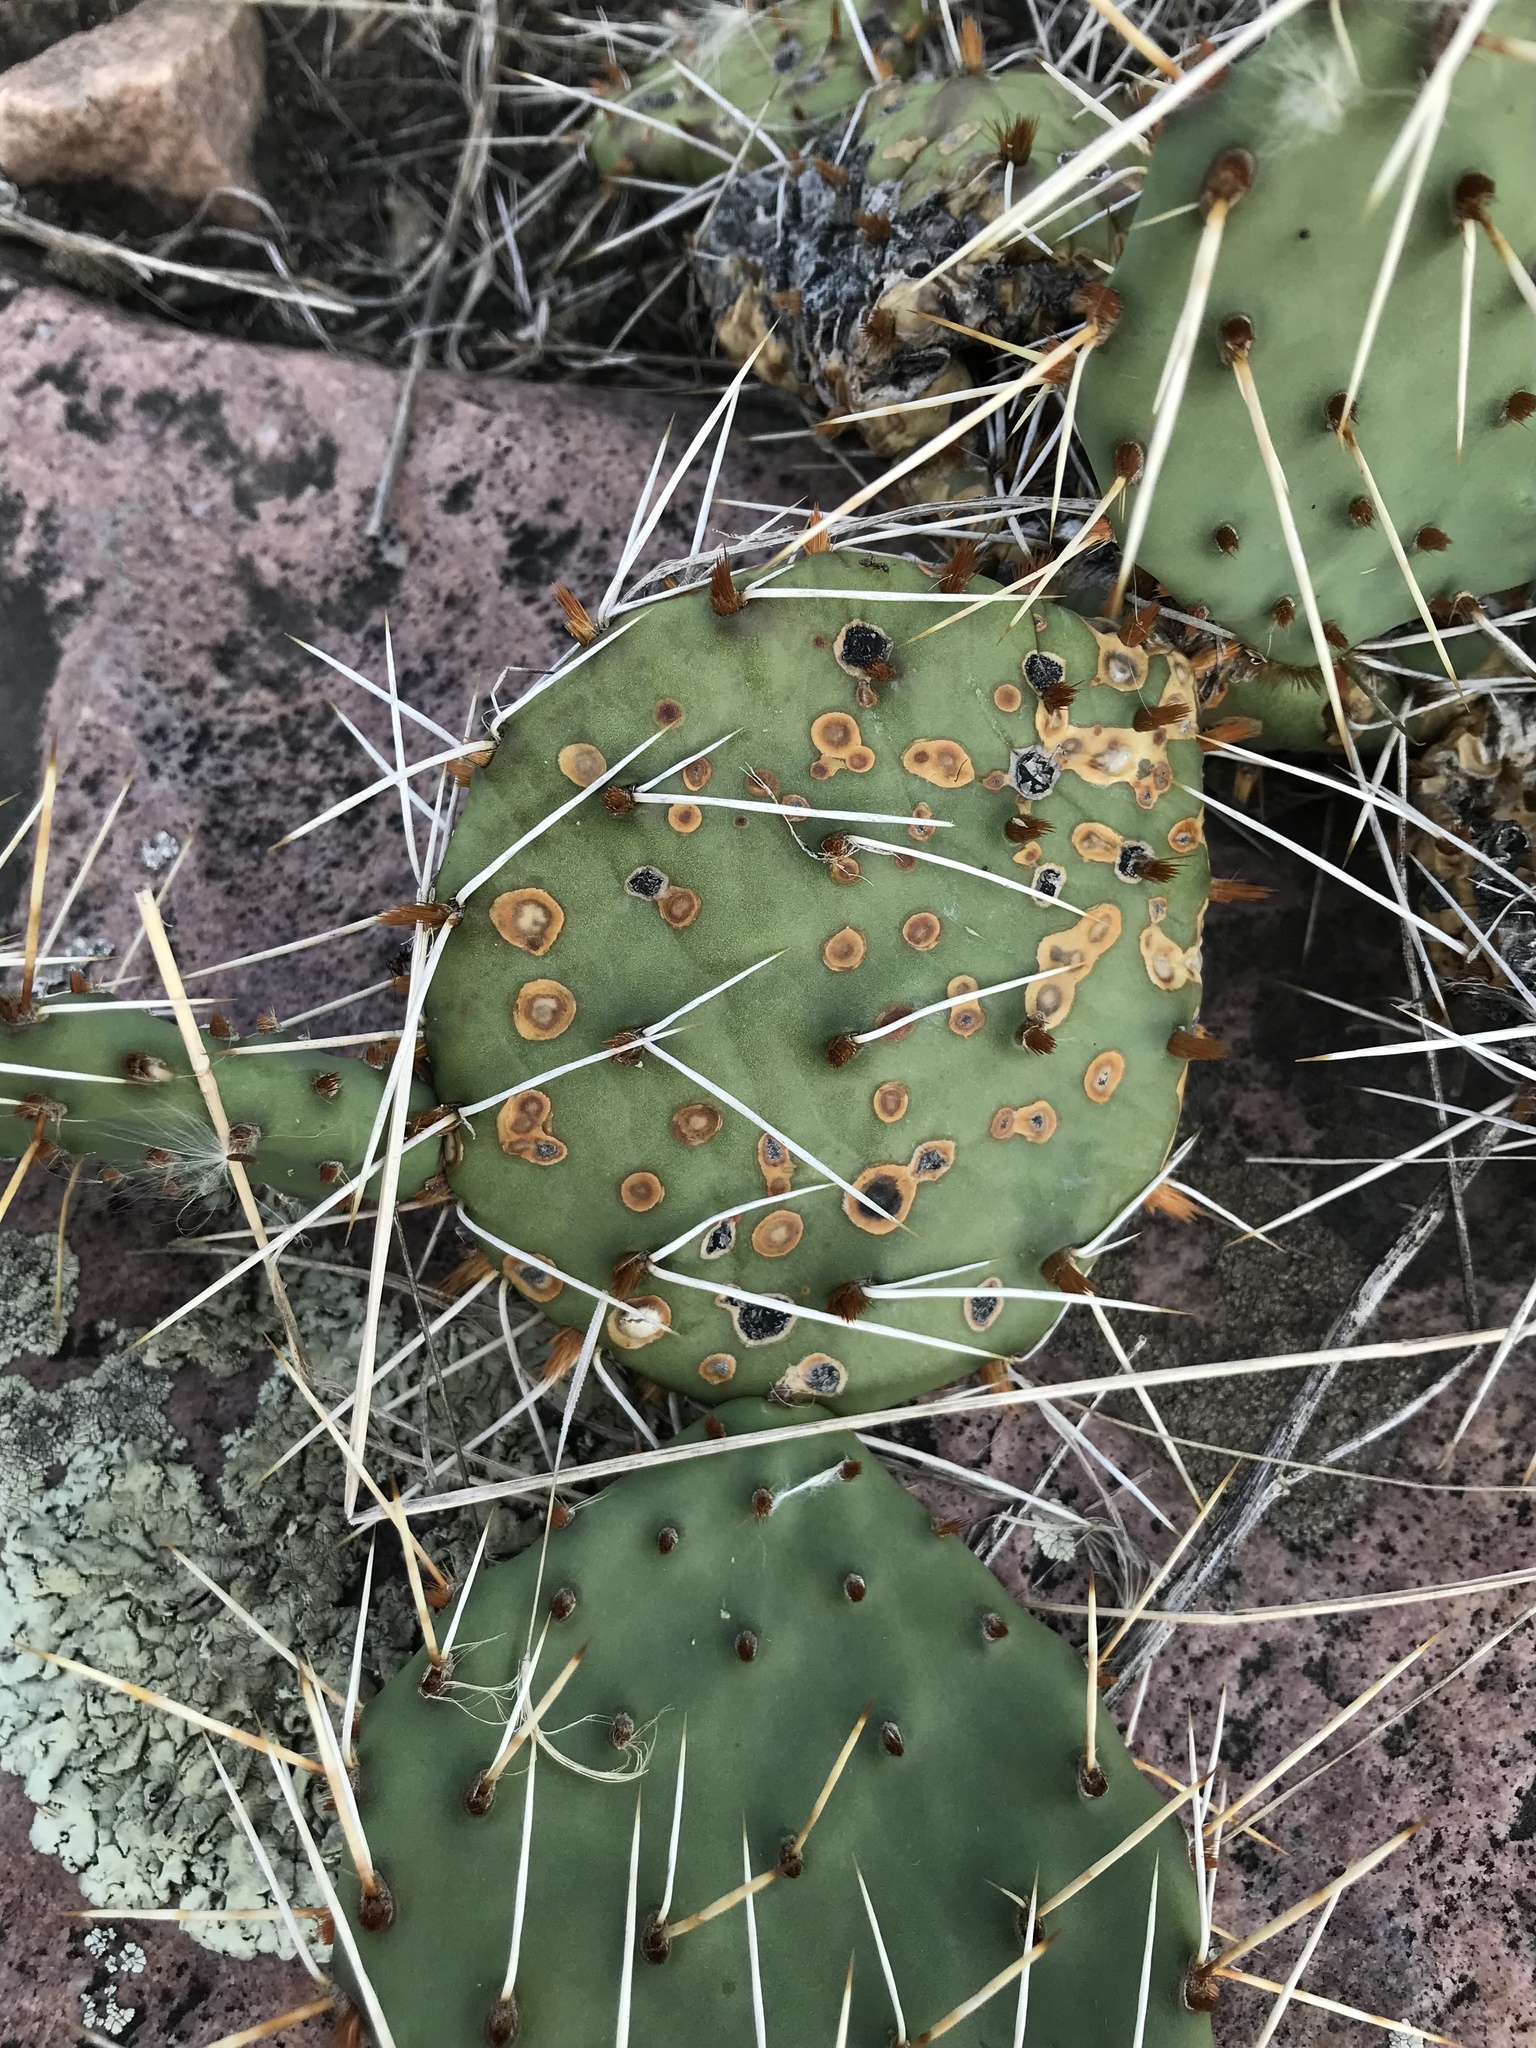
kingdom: Plantae
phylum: Tracheophyta
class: Magnoliopsida
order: Caryophyllales
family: Cactaceae
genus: Opuntia
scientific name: Opuntia macrorhiza
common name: Grassland pricklypear
